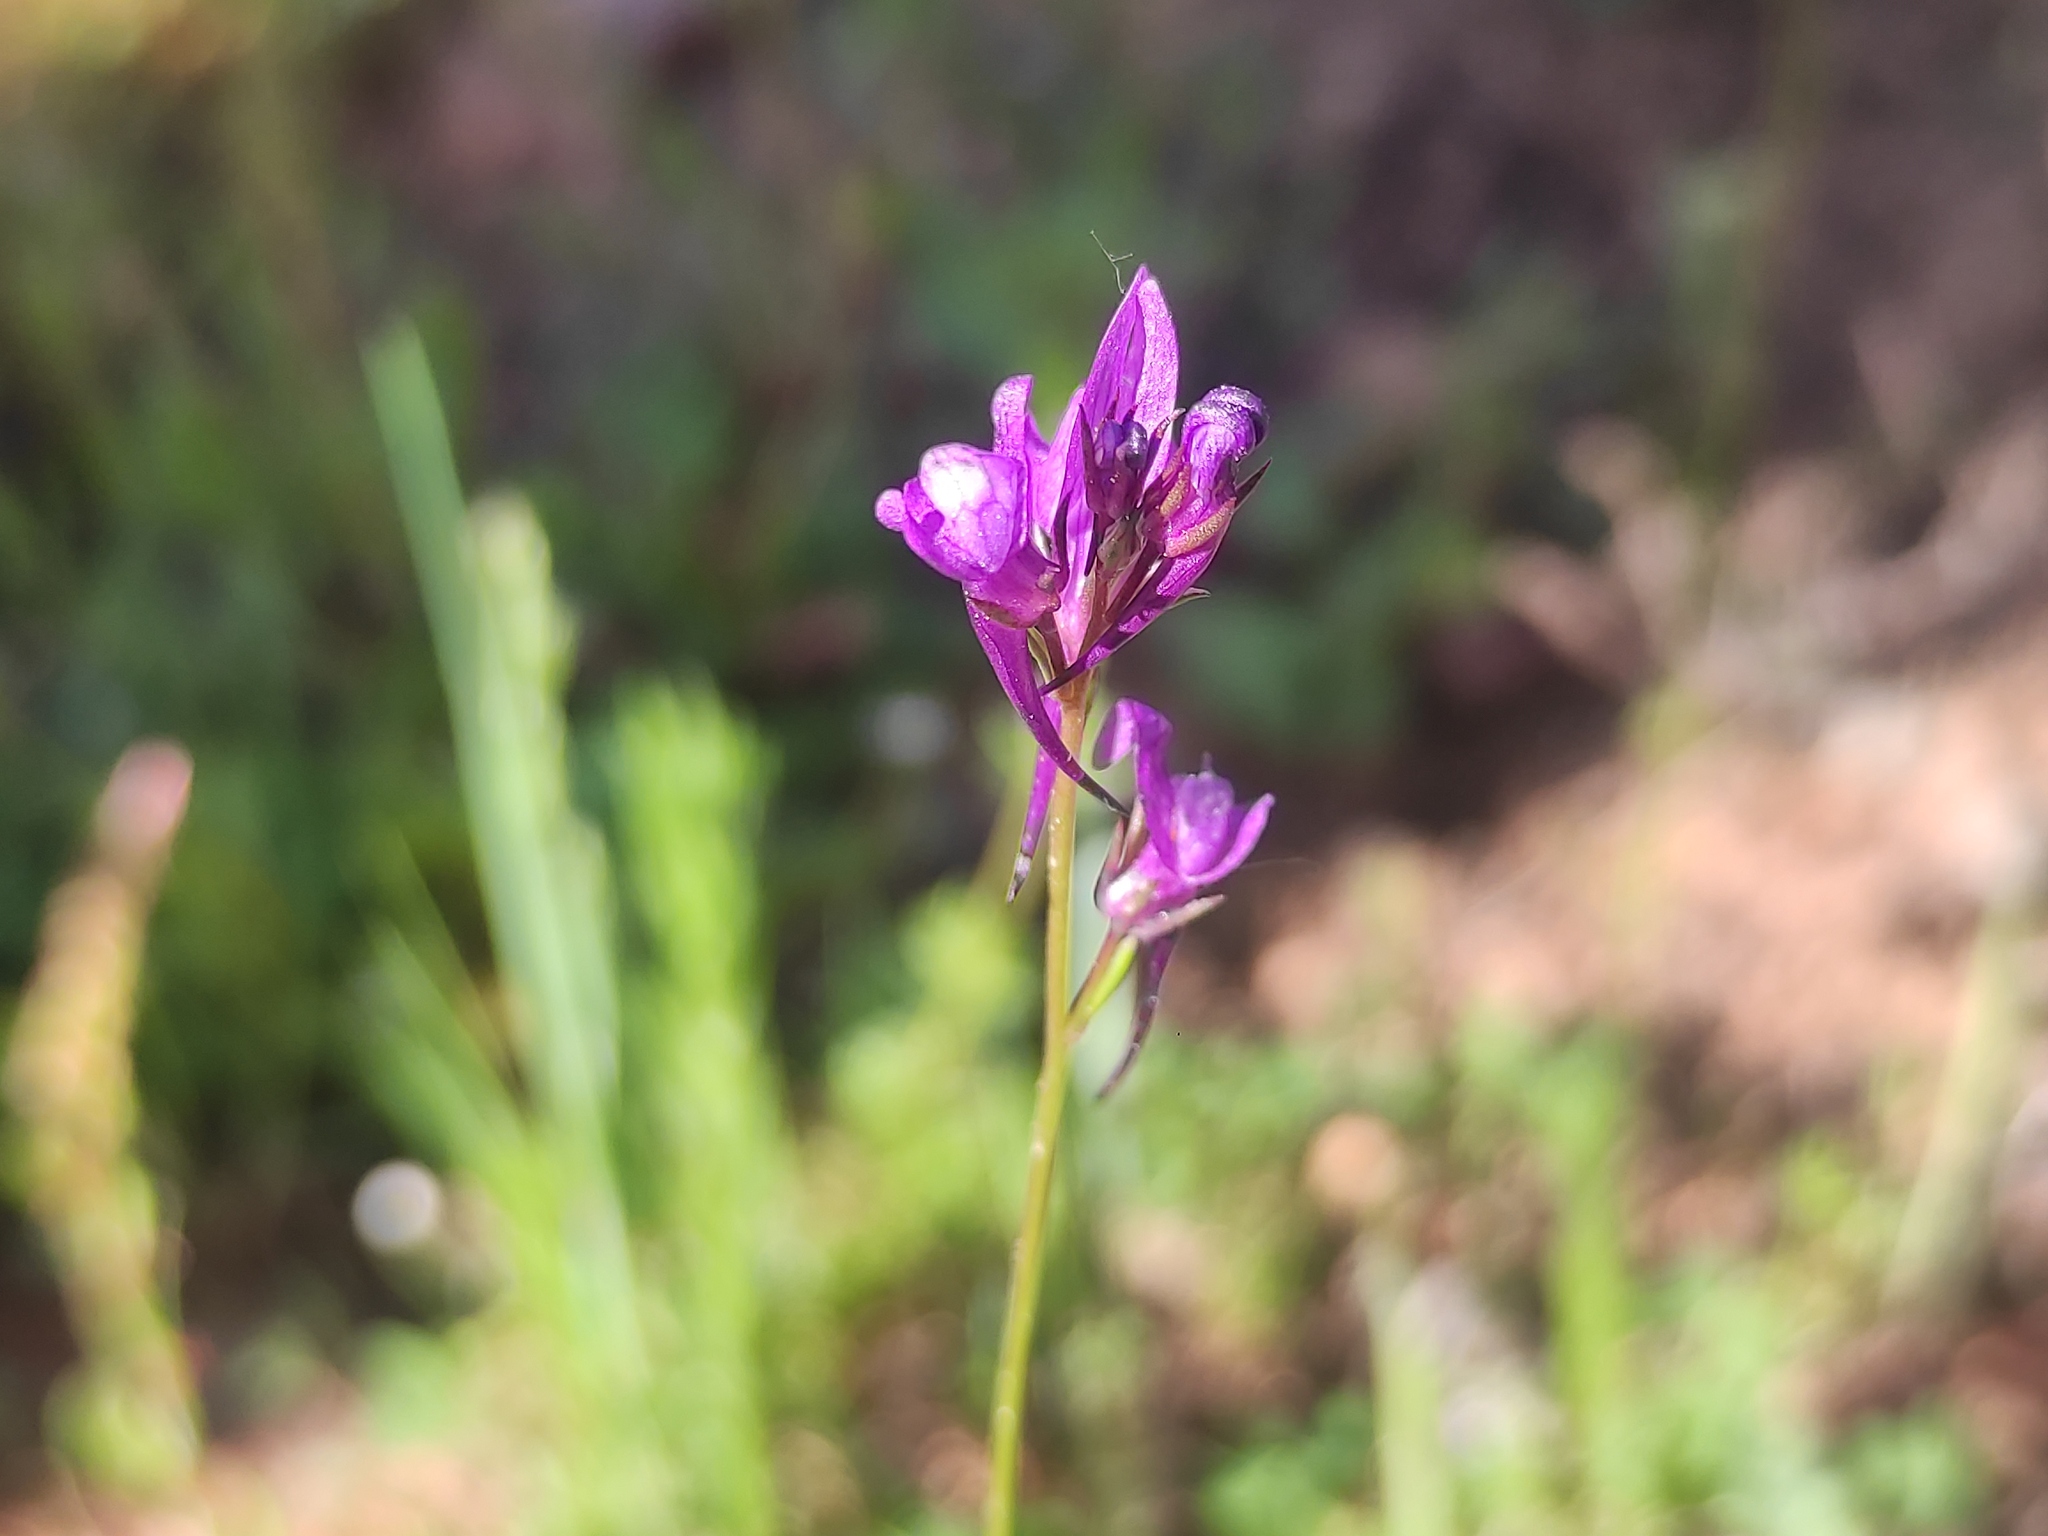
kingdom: Plantae
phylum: Tracheophyta
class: Magnoliopsida
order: Lamiales
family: Plantaginaceae
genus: Linaria
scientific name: Linaria pelisseriana
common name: Jersey toadflax
